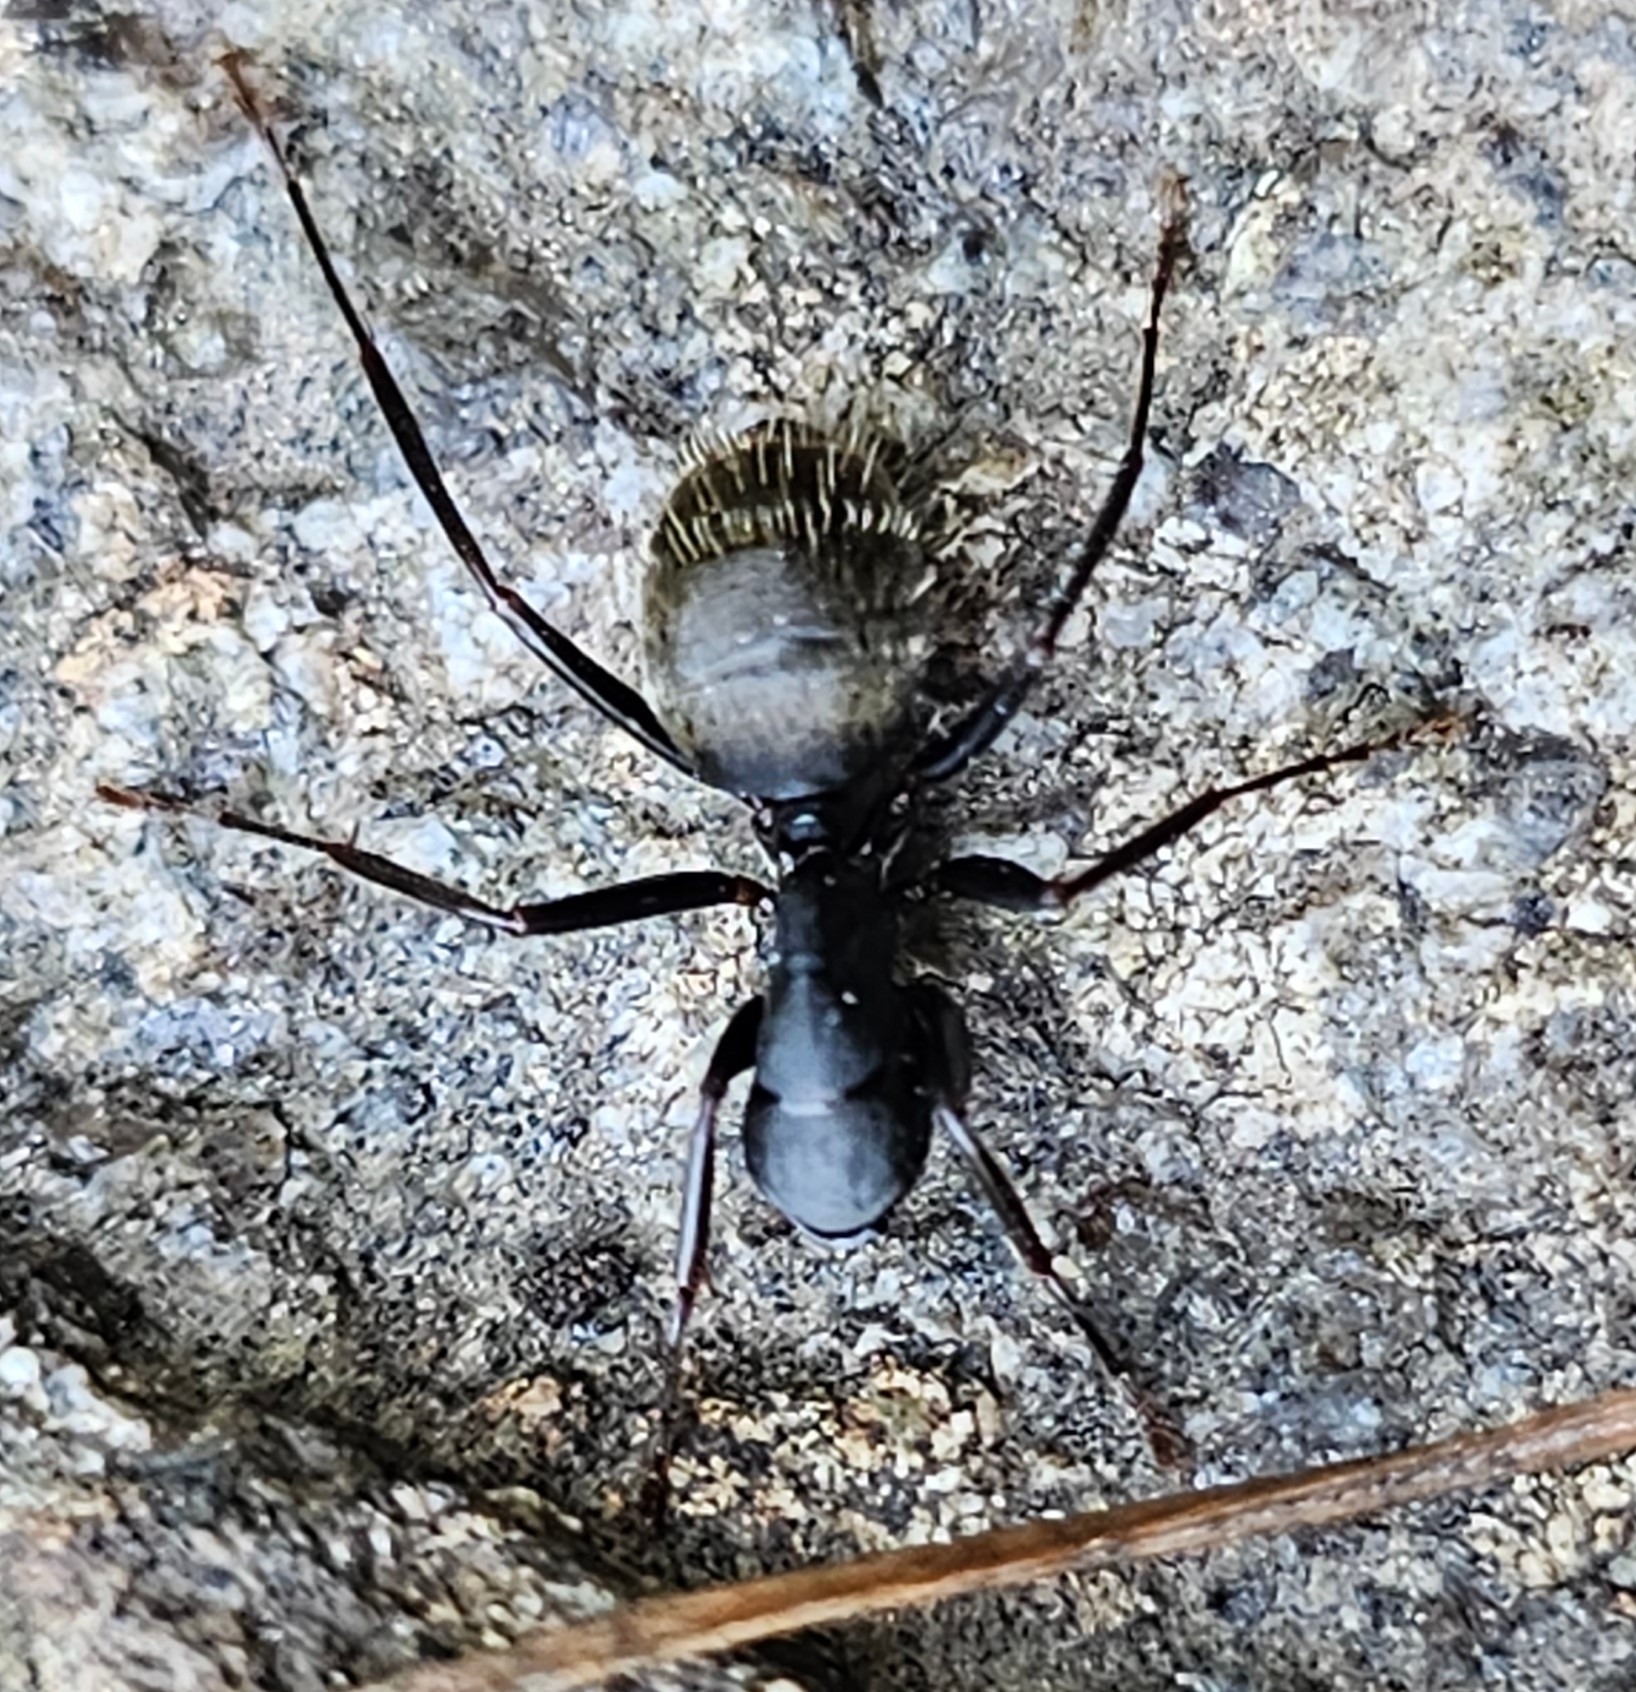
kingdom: Animalia
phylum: Arthropoda
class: Insecta
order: Hymenoptera
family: Formicidae
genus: Camponotus
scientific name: Camponotus pennsylvanicus
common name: Black carpenter ant
